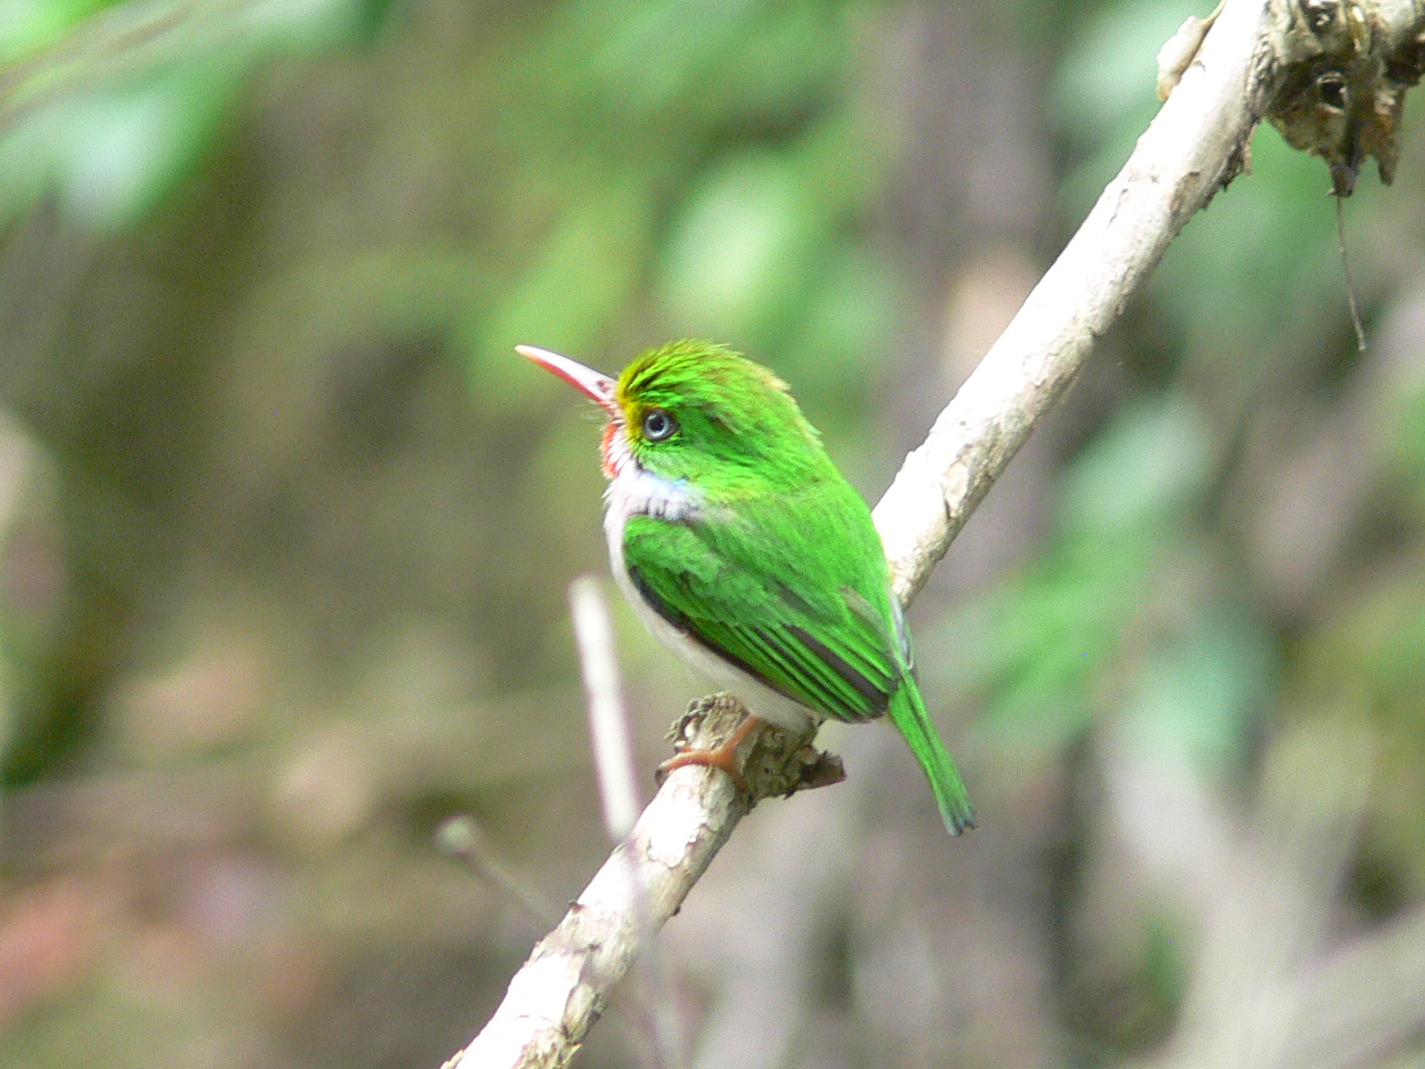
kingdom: Animalia
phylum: Chordata
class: Aves
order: Coraciiformes
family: Todidae
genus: Todus
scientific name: Todus multicolor
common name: Cuban tody
